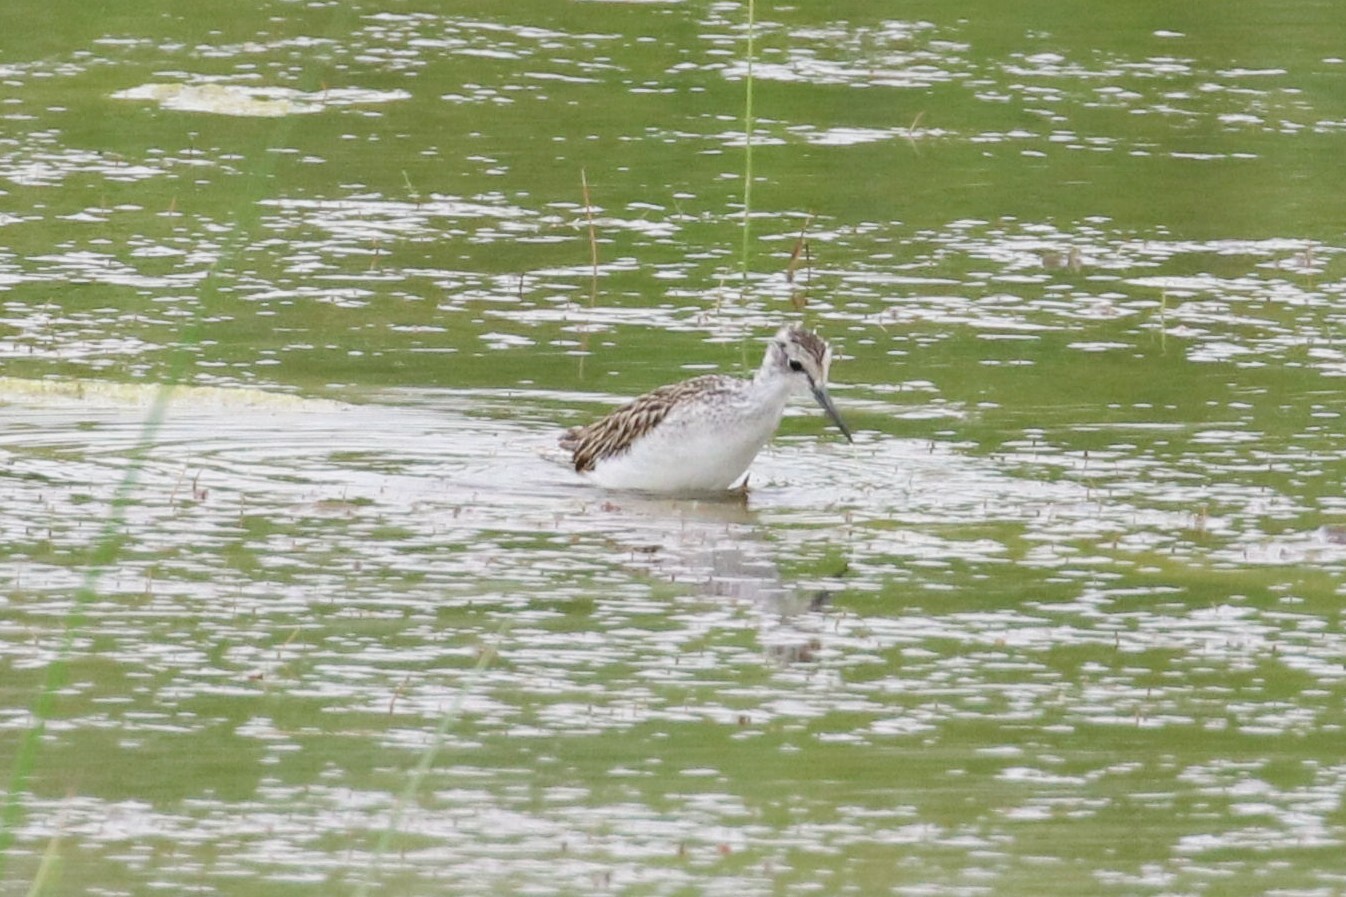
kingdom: Animalia
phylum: Chordata
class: Aves
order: Charadriiformes
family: Scolopacidae
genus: Tringa
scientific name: Tringa stagnatilis
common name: Marsh sandpiper
